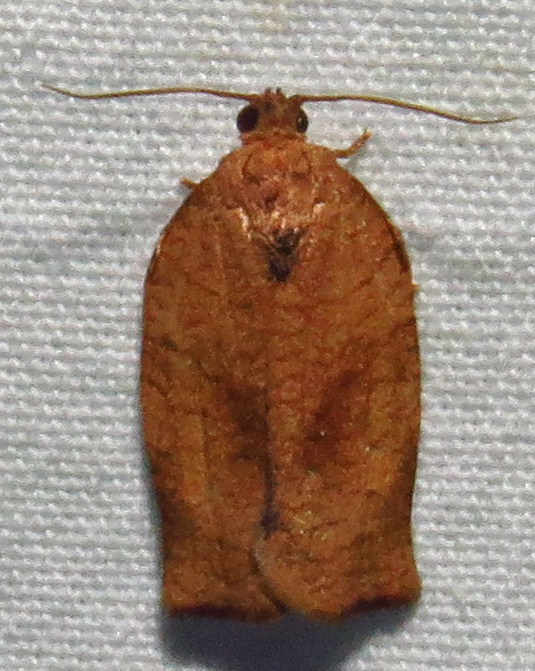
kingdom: Animalia
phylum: Arthropoda
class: Insecta
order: Lepidoptera
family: Tortricidae
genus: Choristoneura
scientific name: Choristoneura rosaceana
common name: Oblique-banded leafroller moth
